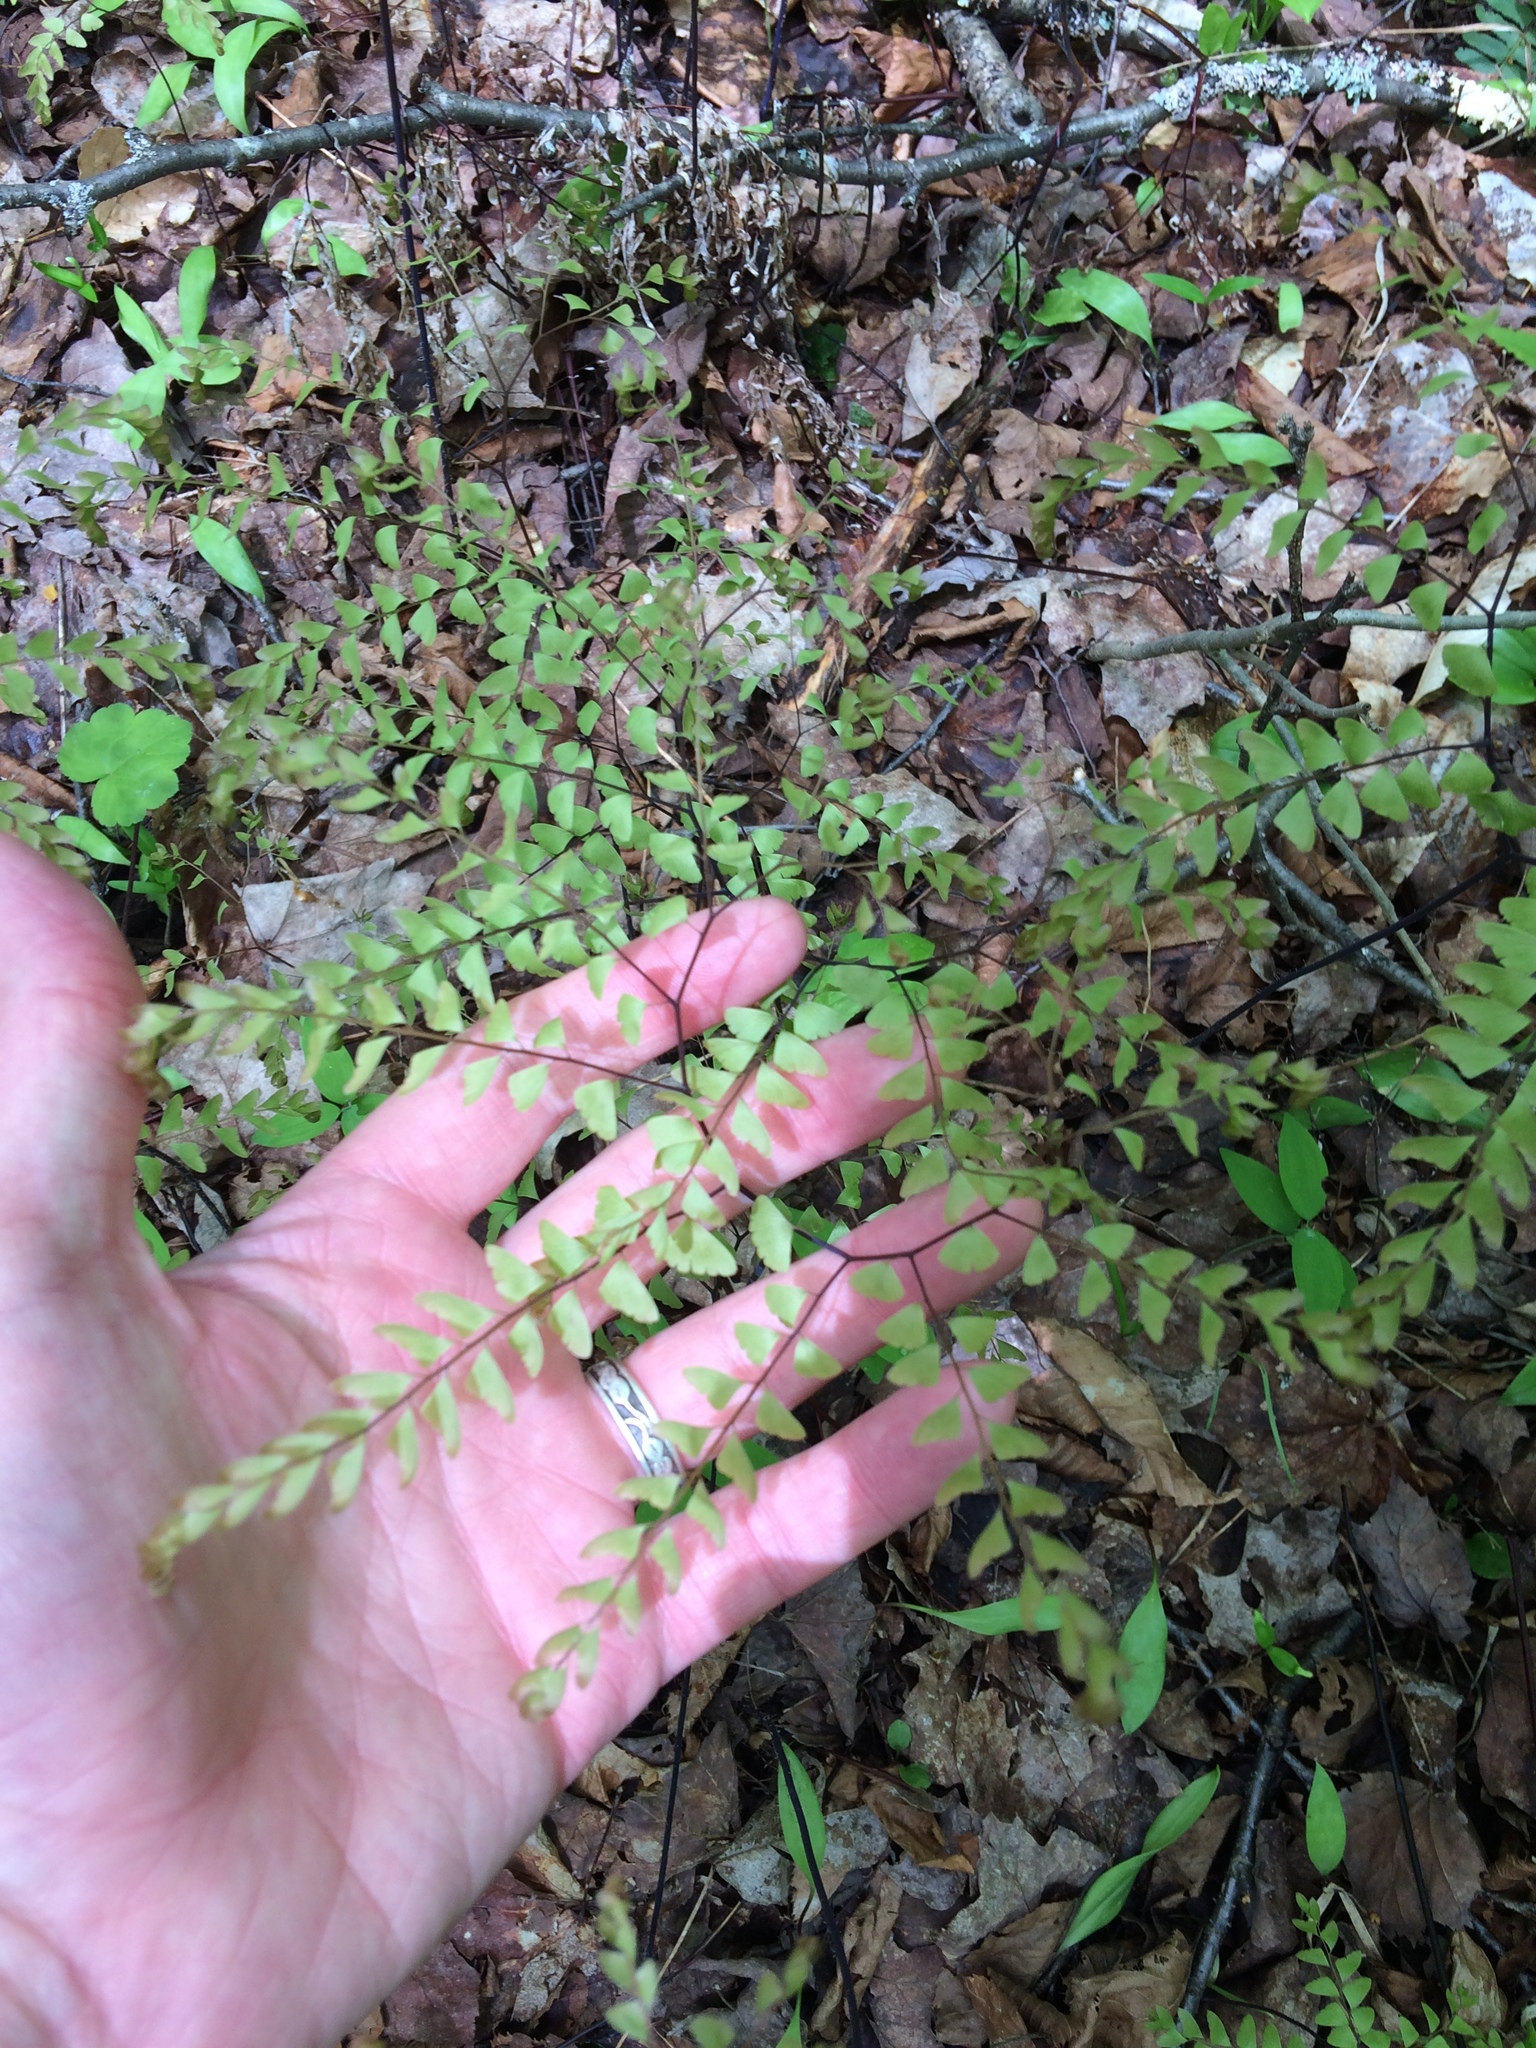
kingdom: Plantae
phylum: Tracheophyta
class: Polypodiopsida
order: Polypodiales
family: Pteridaceae
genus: Adiantum
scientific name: Adiantum pedatum
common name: Five-finger fern
